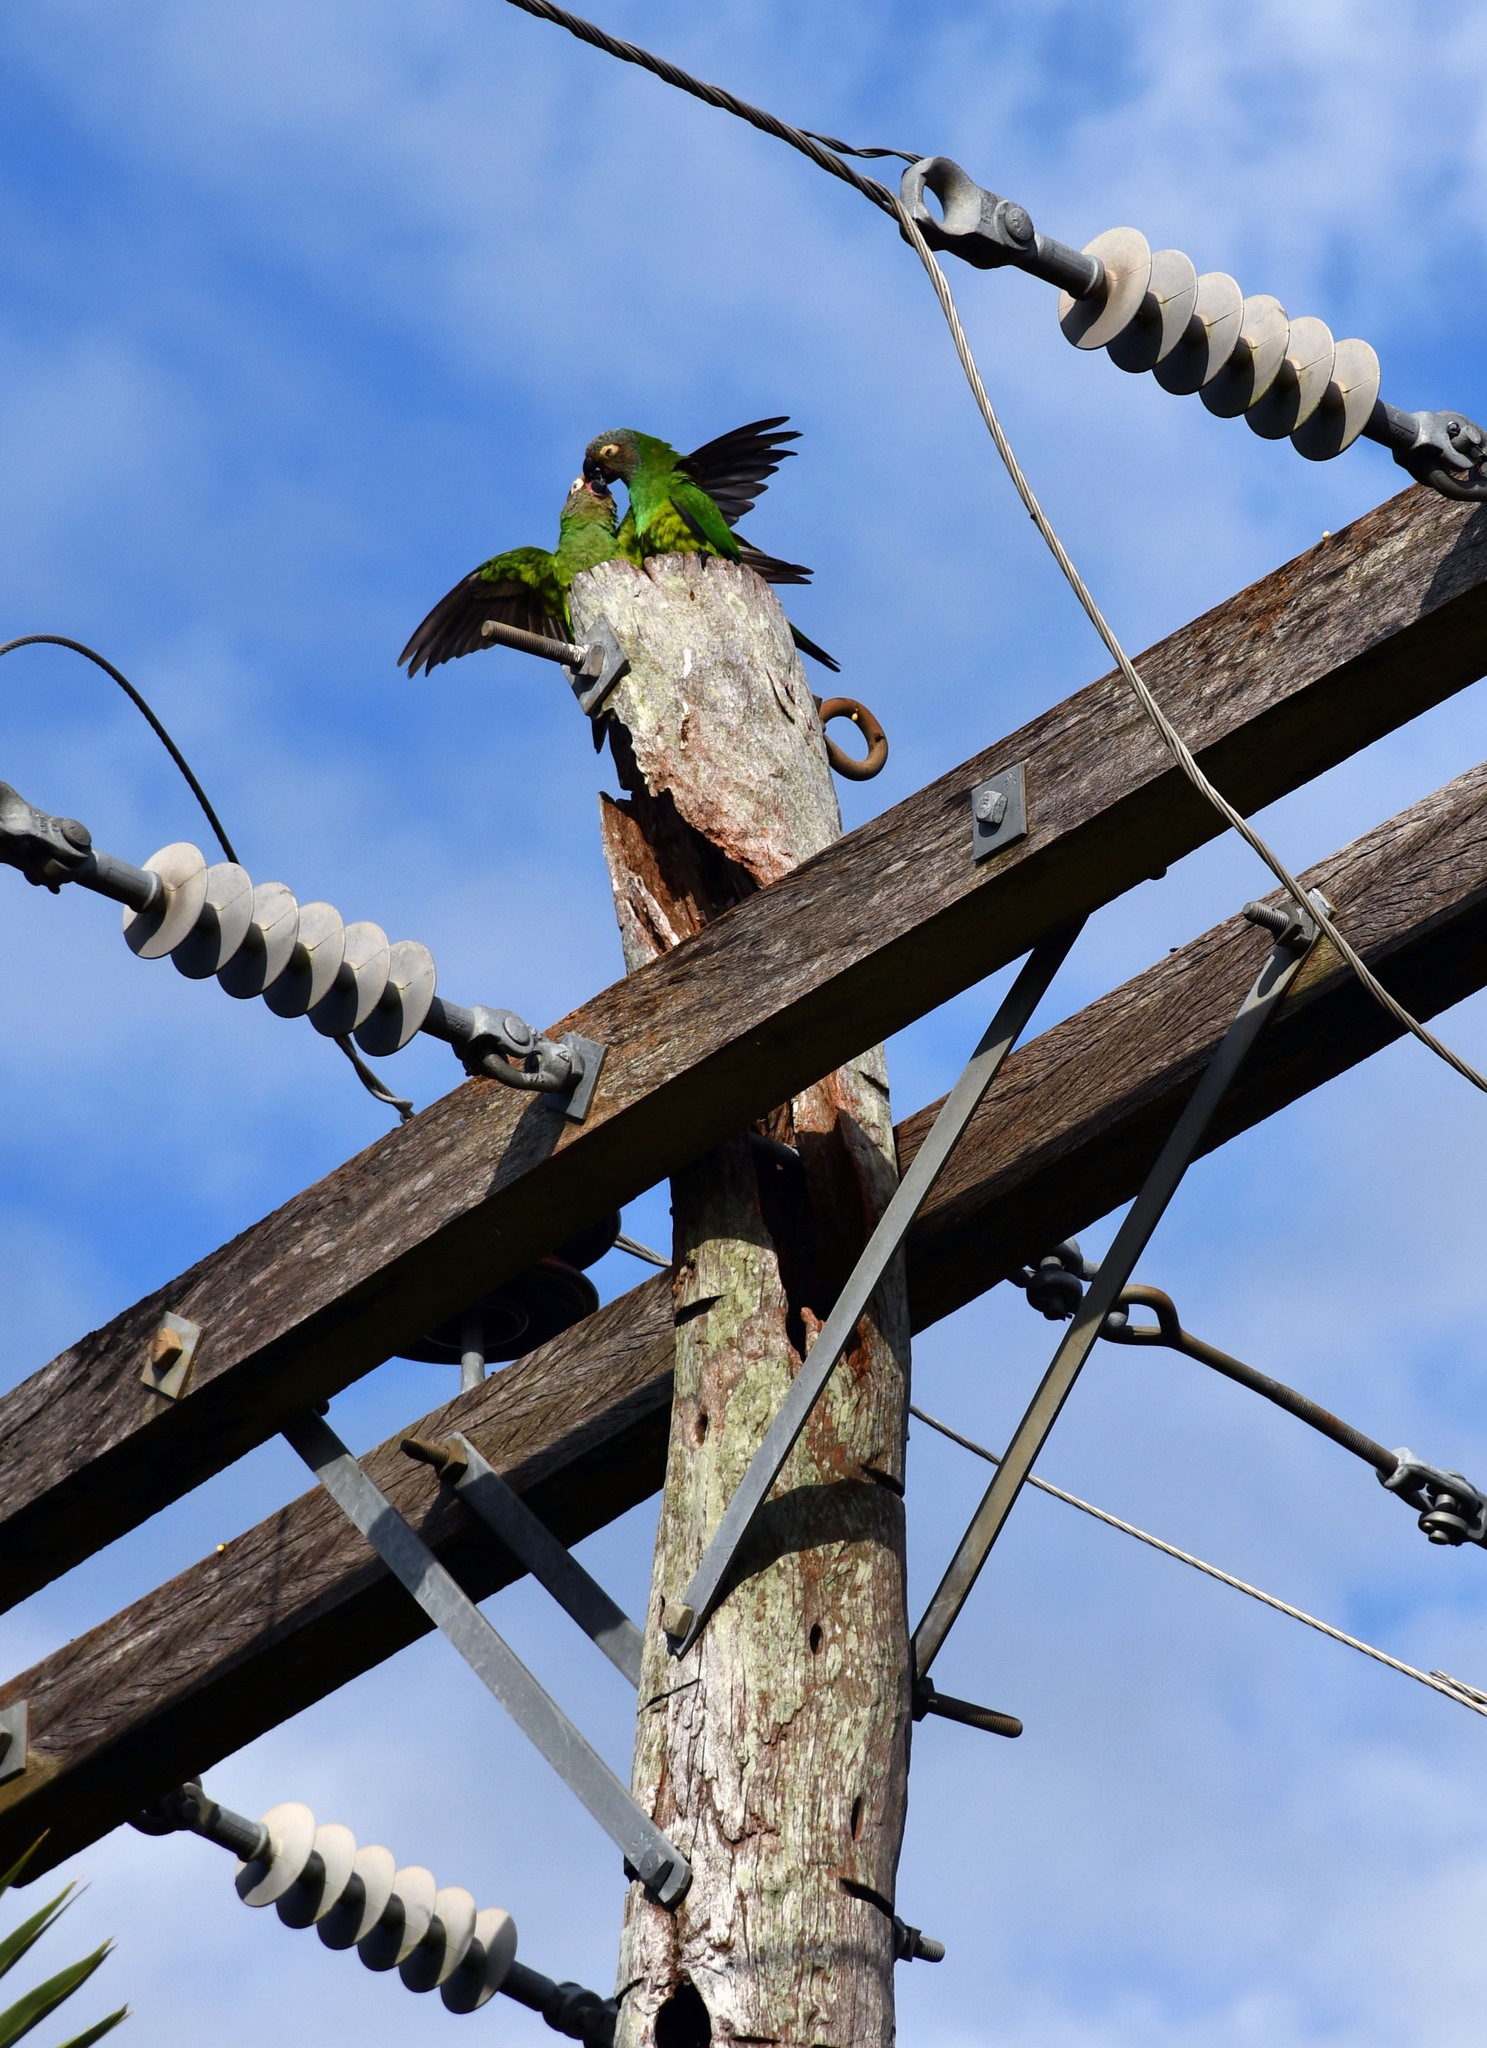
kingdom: Animalia
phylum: Chordata
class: Aves
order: Psittaciformes
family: Psittacidae
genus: Aratinga
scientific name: Aratinga weddellii
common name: Dusky-headed parakeet
